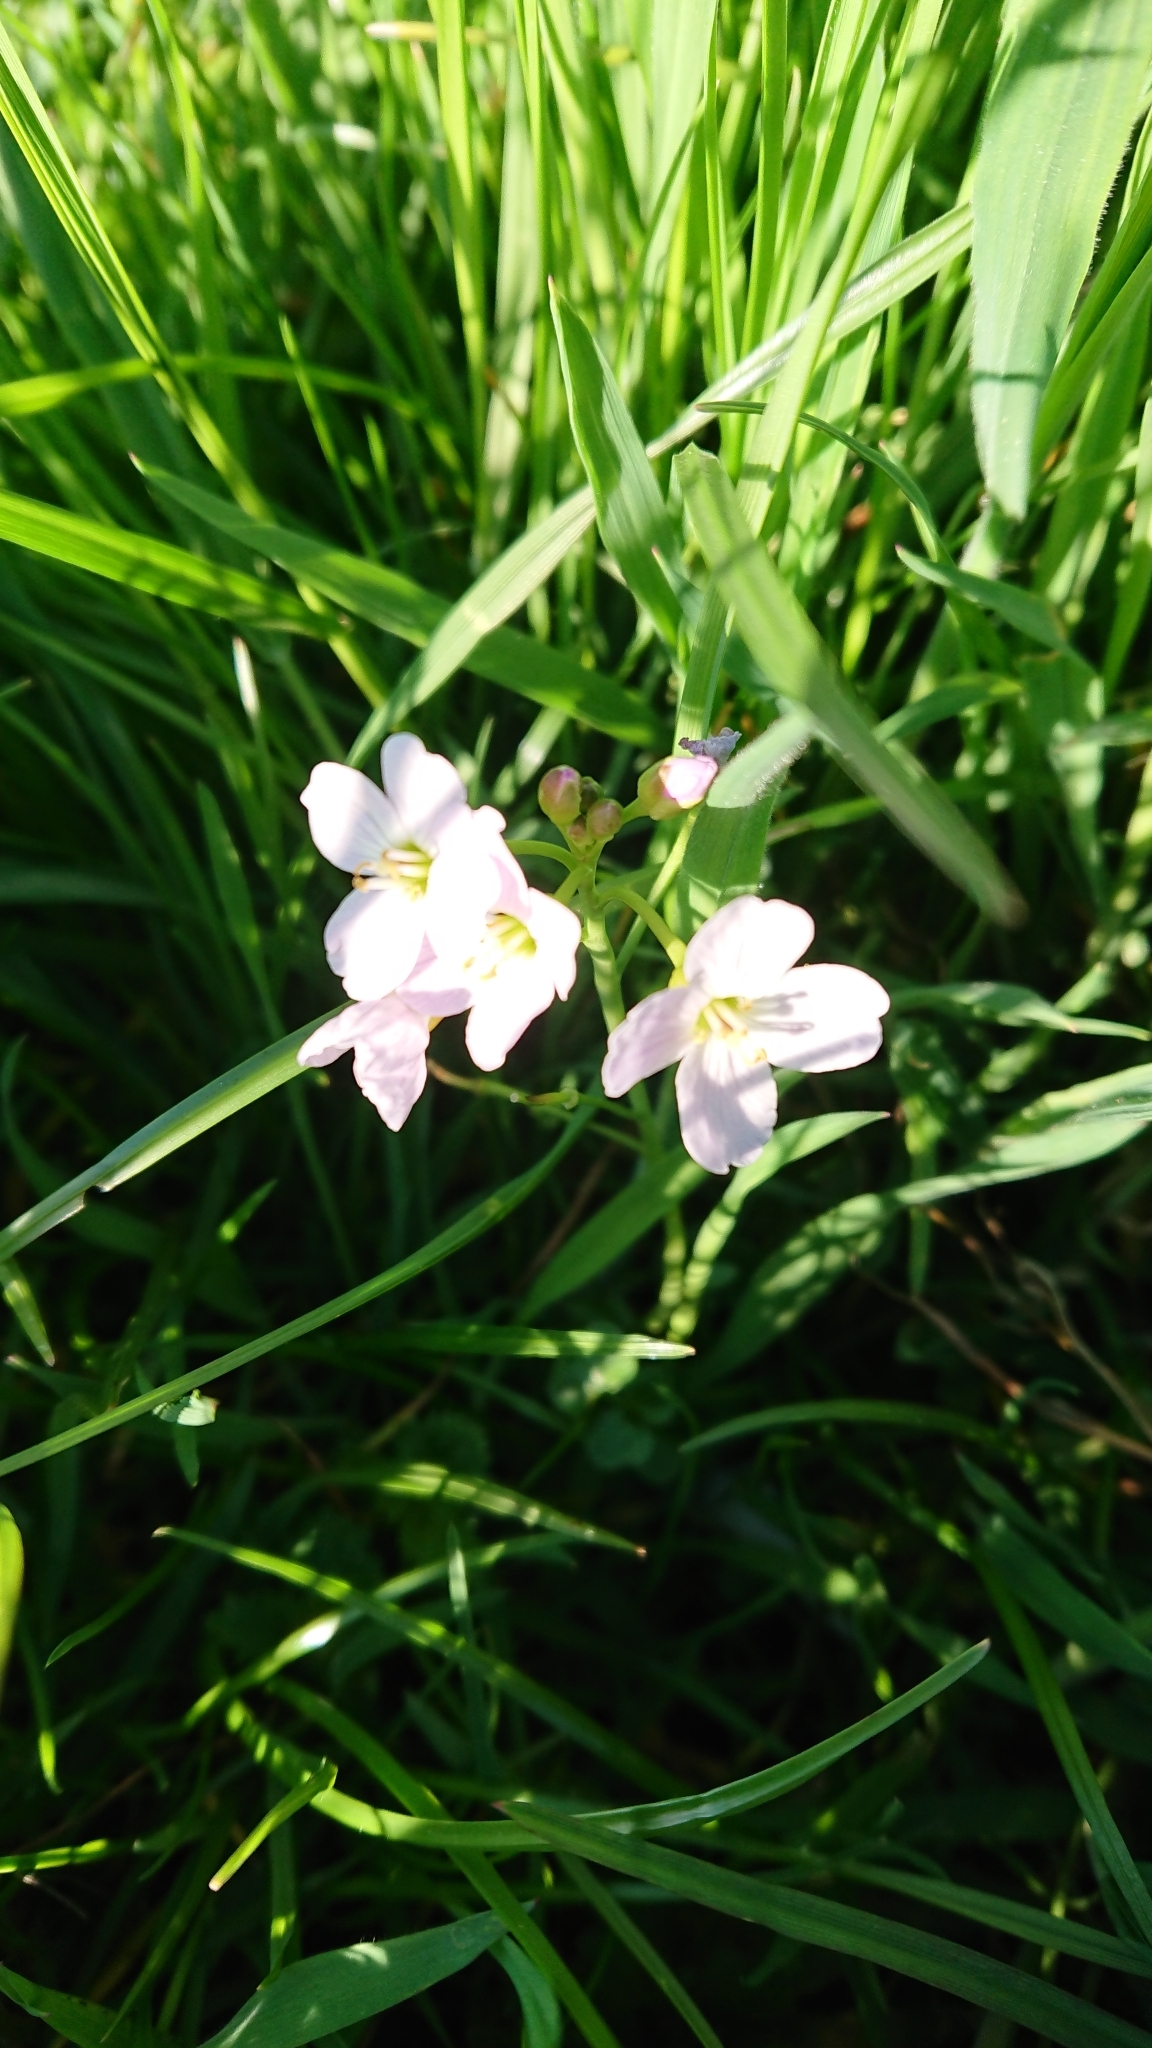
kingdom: Plantae
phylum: Tracheophyta
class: Magnoliopsida
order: Brassicales
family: Brassicaceae
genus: Cardamine
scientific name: Cardamine pratensis
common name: Cuckoo flower
